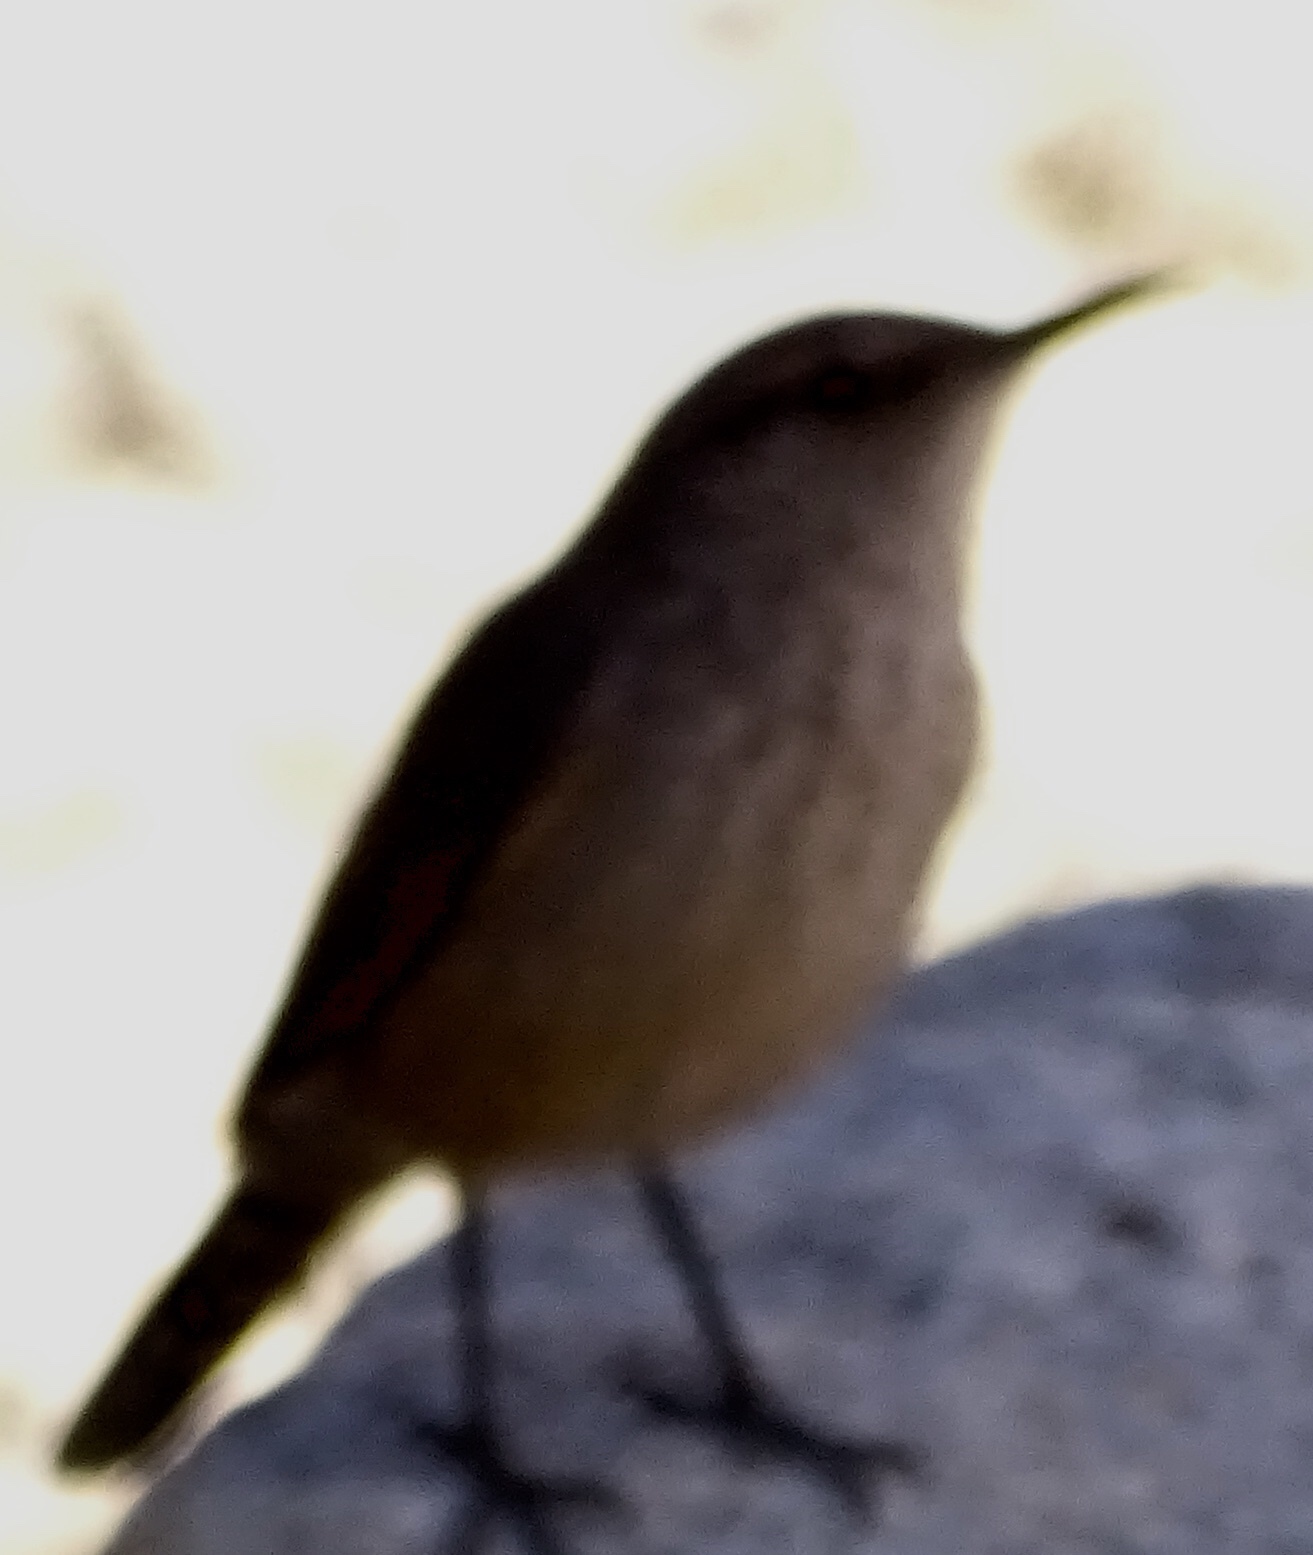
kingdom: Animalia
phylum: Chordata
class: Aves
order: Passeriformes
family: Troglodytidae
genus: Salpinctes
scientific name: Salpinctes obsoletus
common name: Rock wren
